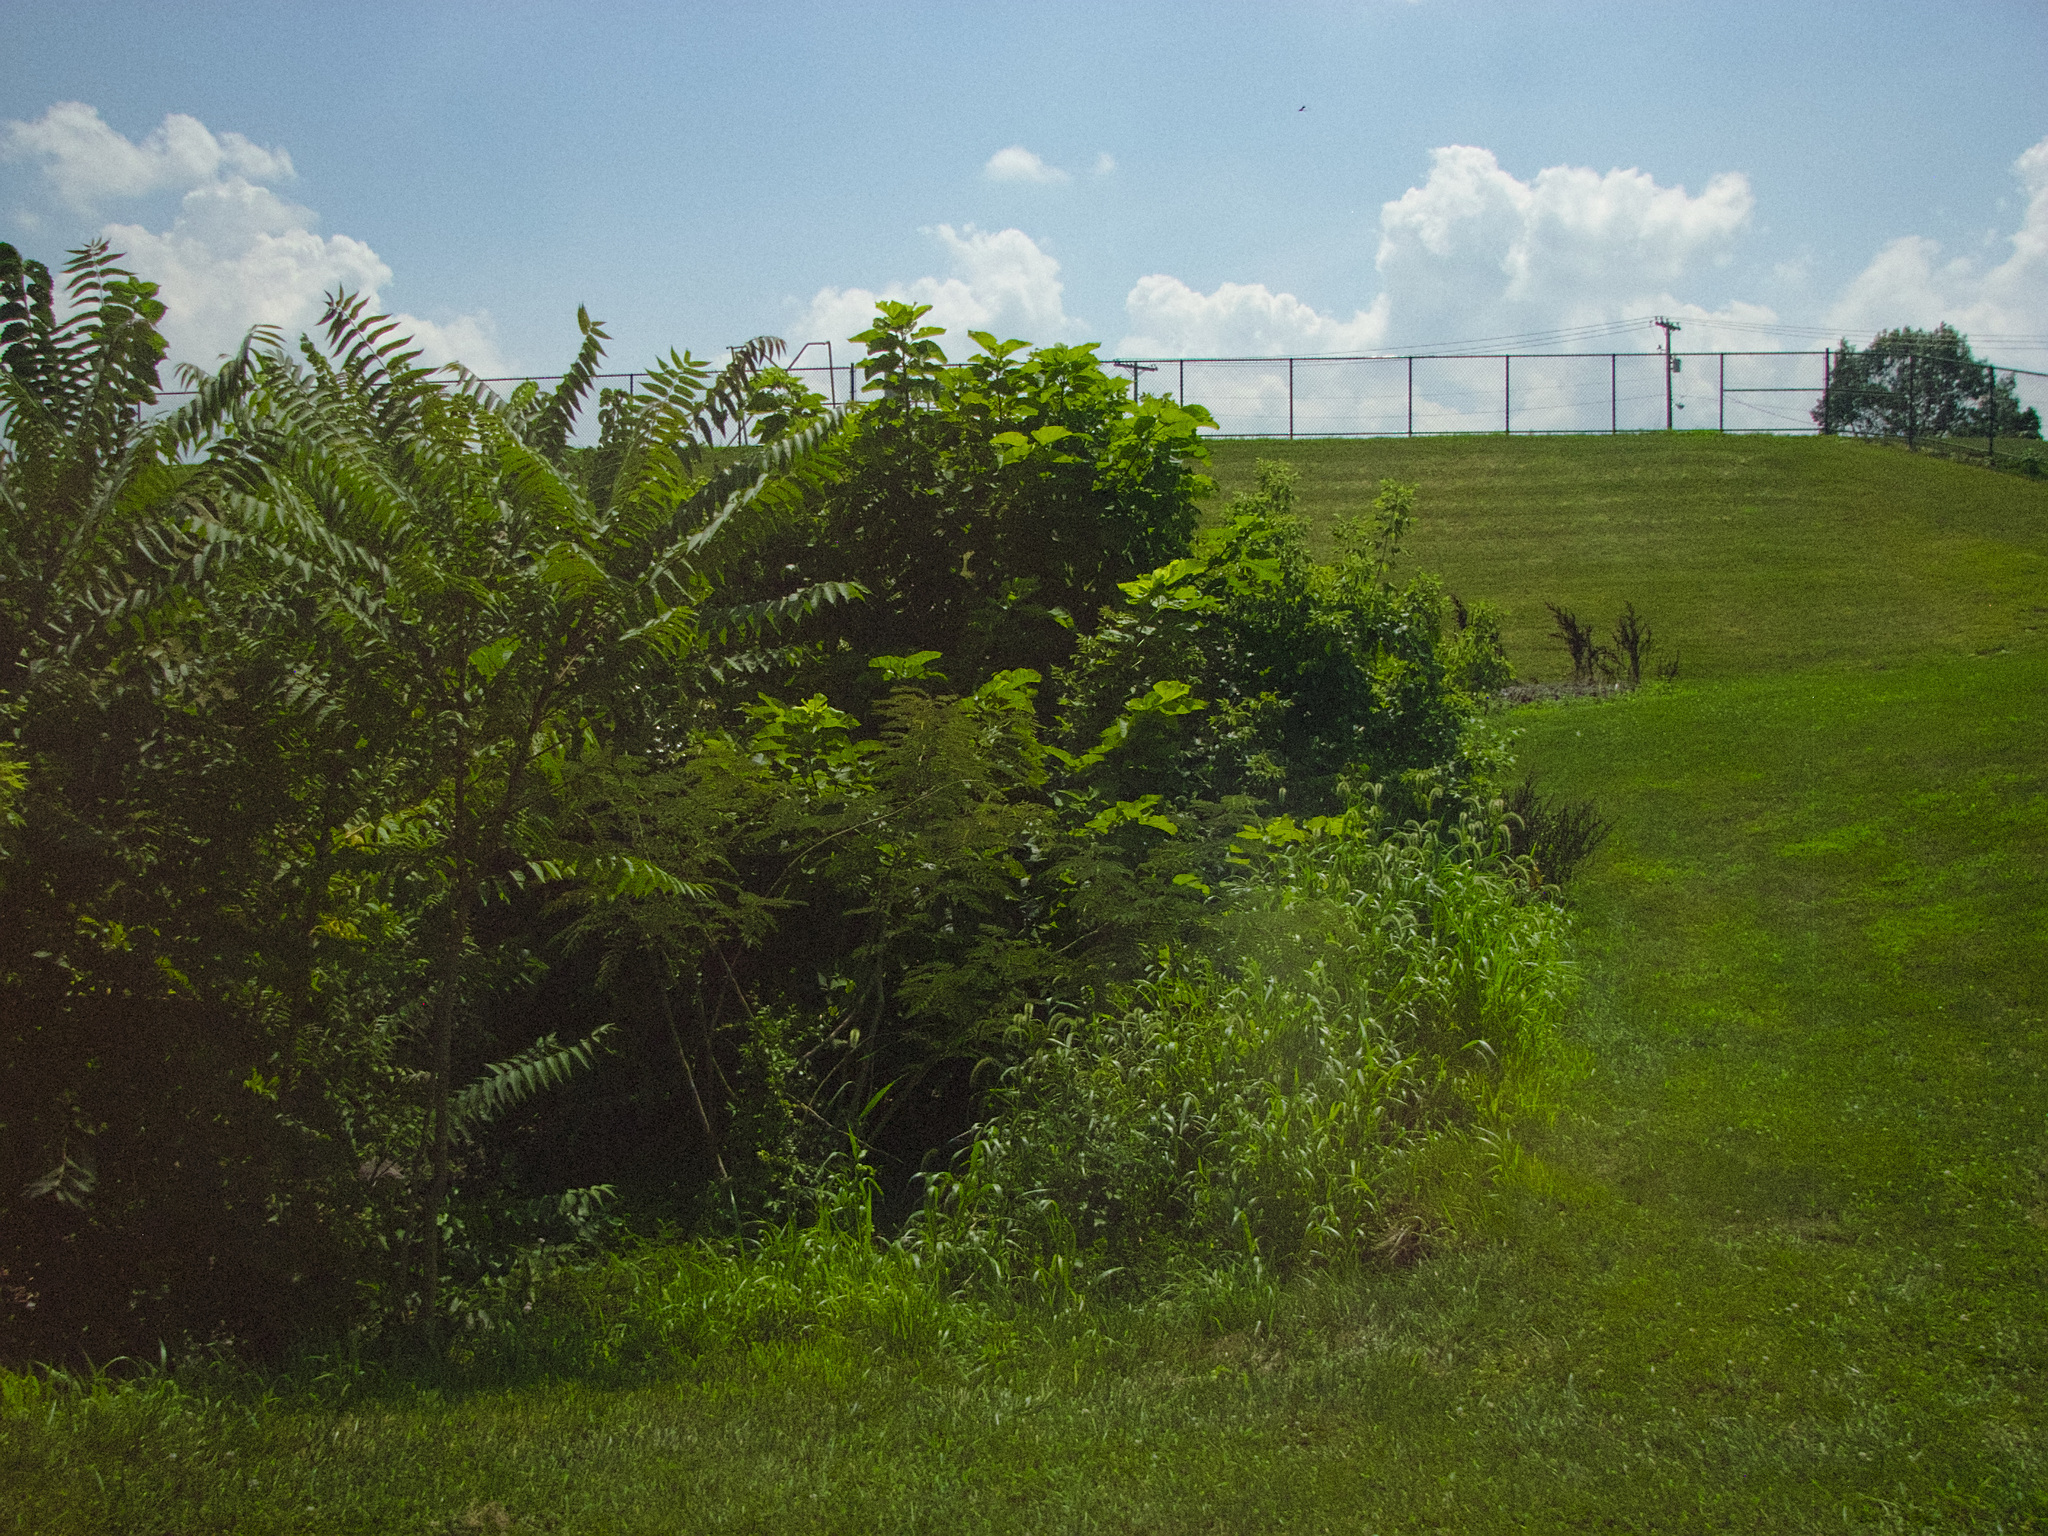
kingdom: Plantae
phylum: Tracheophyta
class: Magnoliopsida
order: Sapindales
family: Simaroubaceae
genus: Ailanthus
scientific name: Ailanthus altissima
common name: Tree-of-heaven
